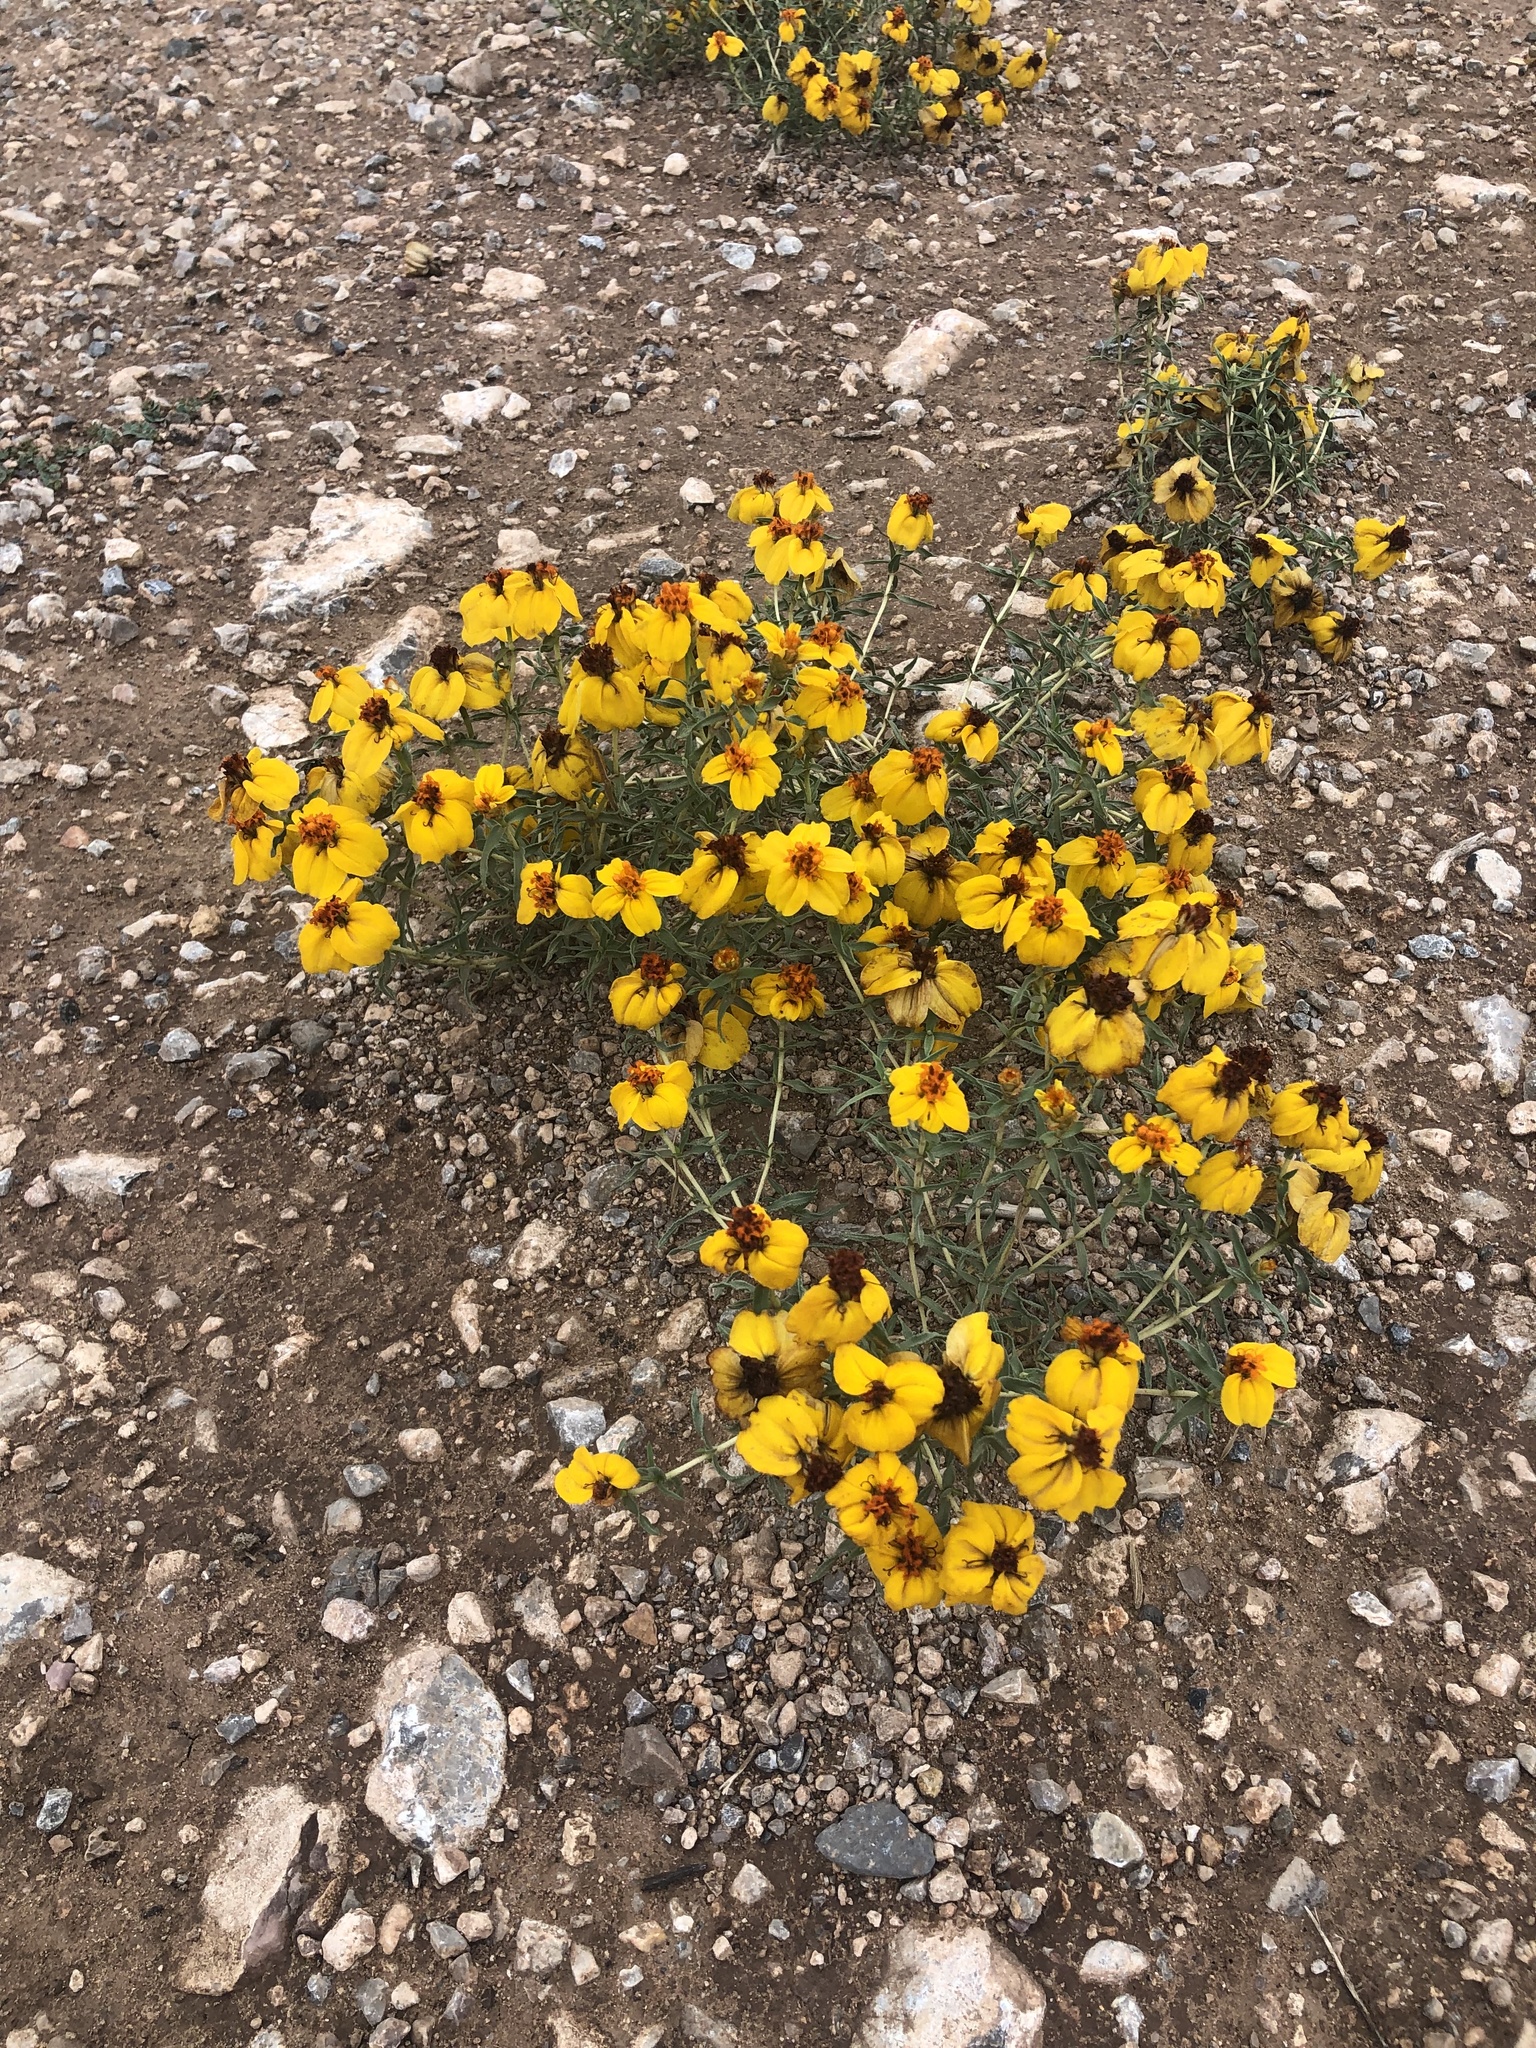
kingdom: Plantae
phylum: Tracheophyta
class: Magnoliopsida
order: Asterales
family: Asteraceae
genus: Zinnia
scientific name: Zinnia grandiflora
